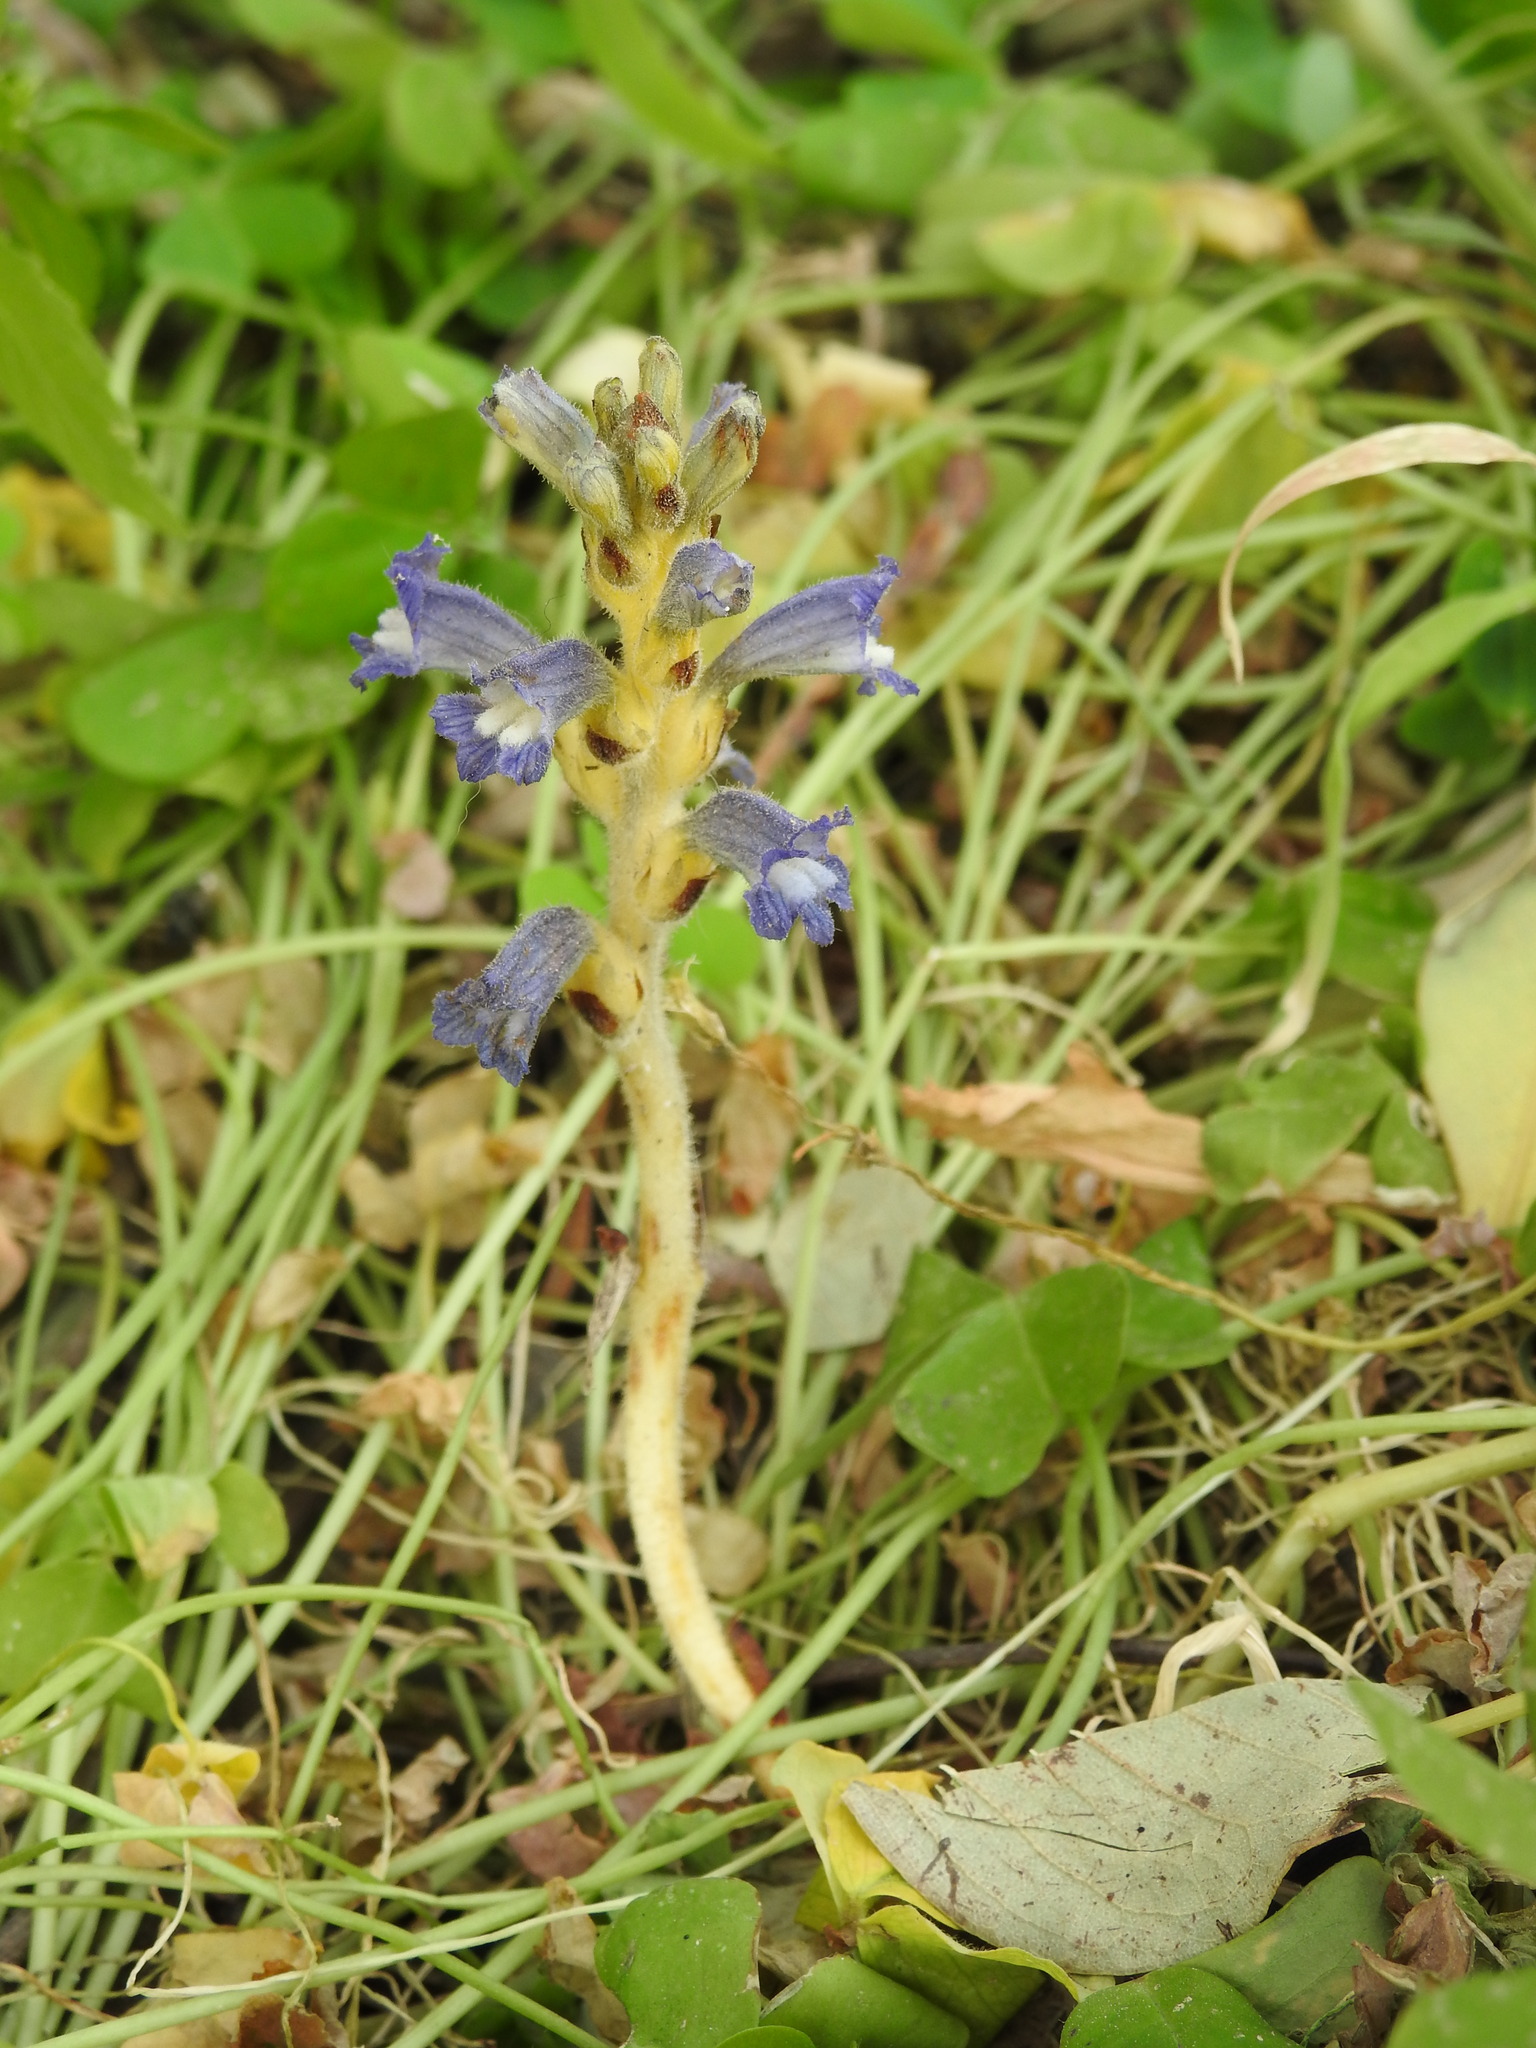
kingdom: Plantae
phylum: Tracheophyta
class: Magnoliopsida
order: Lamiales
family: Orobanchaceae
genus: Phelipanche
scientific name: Phelipanche mutelii
